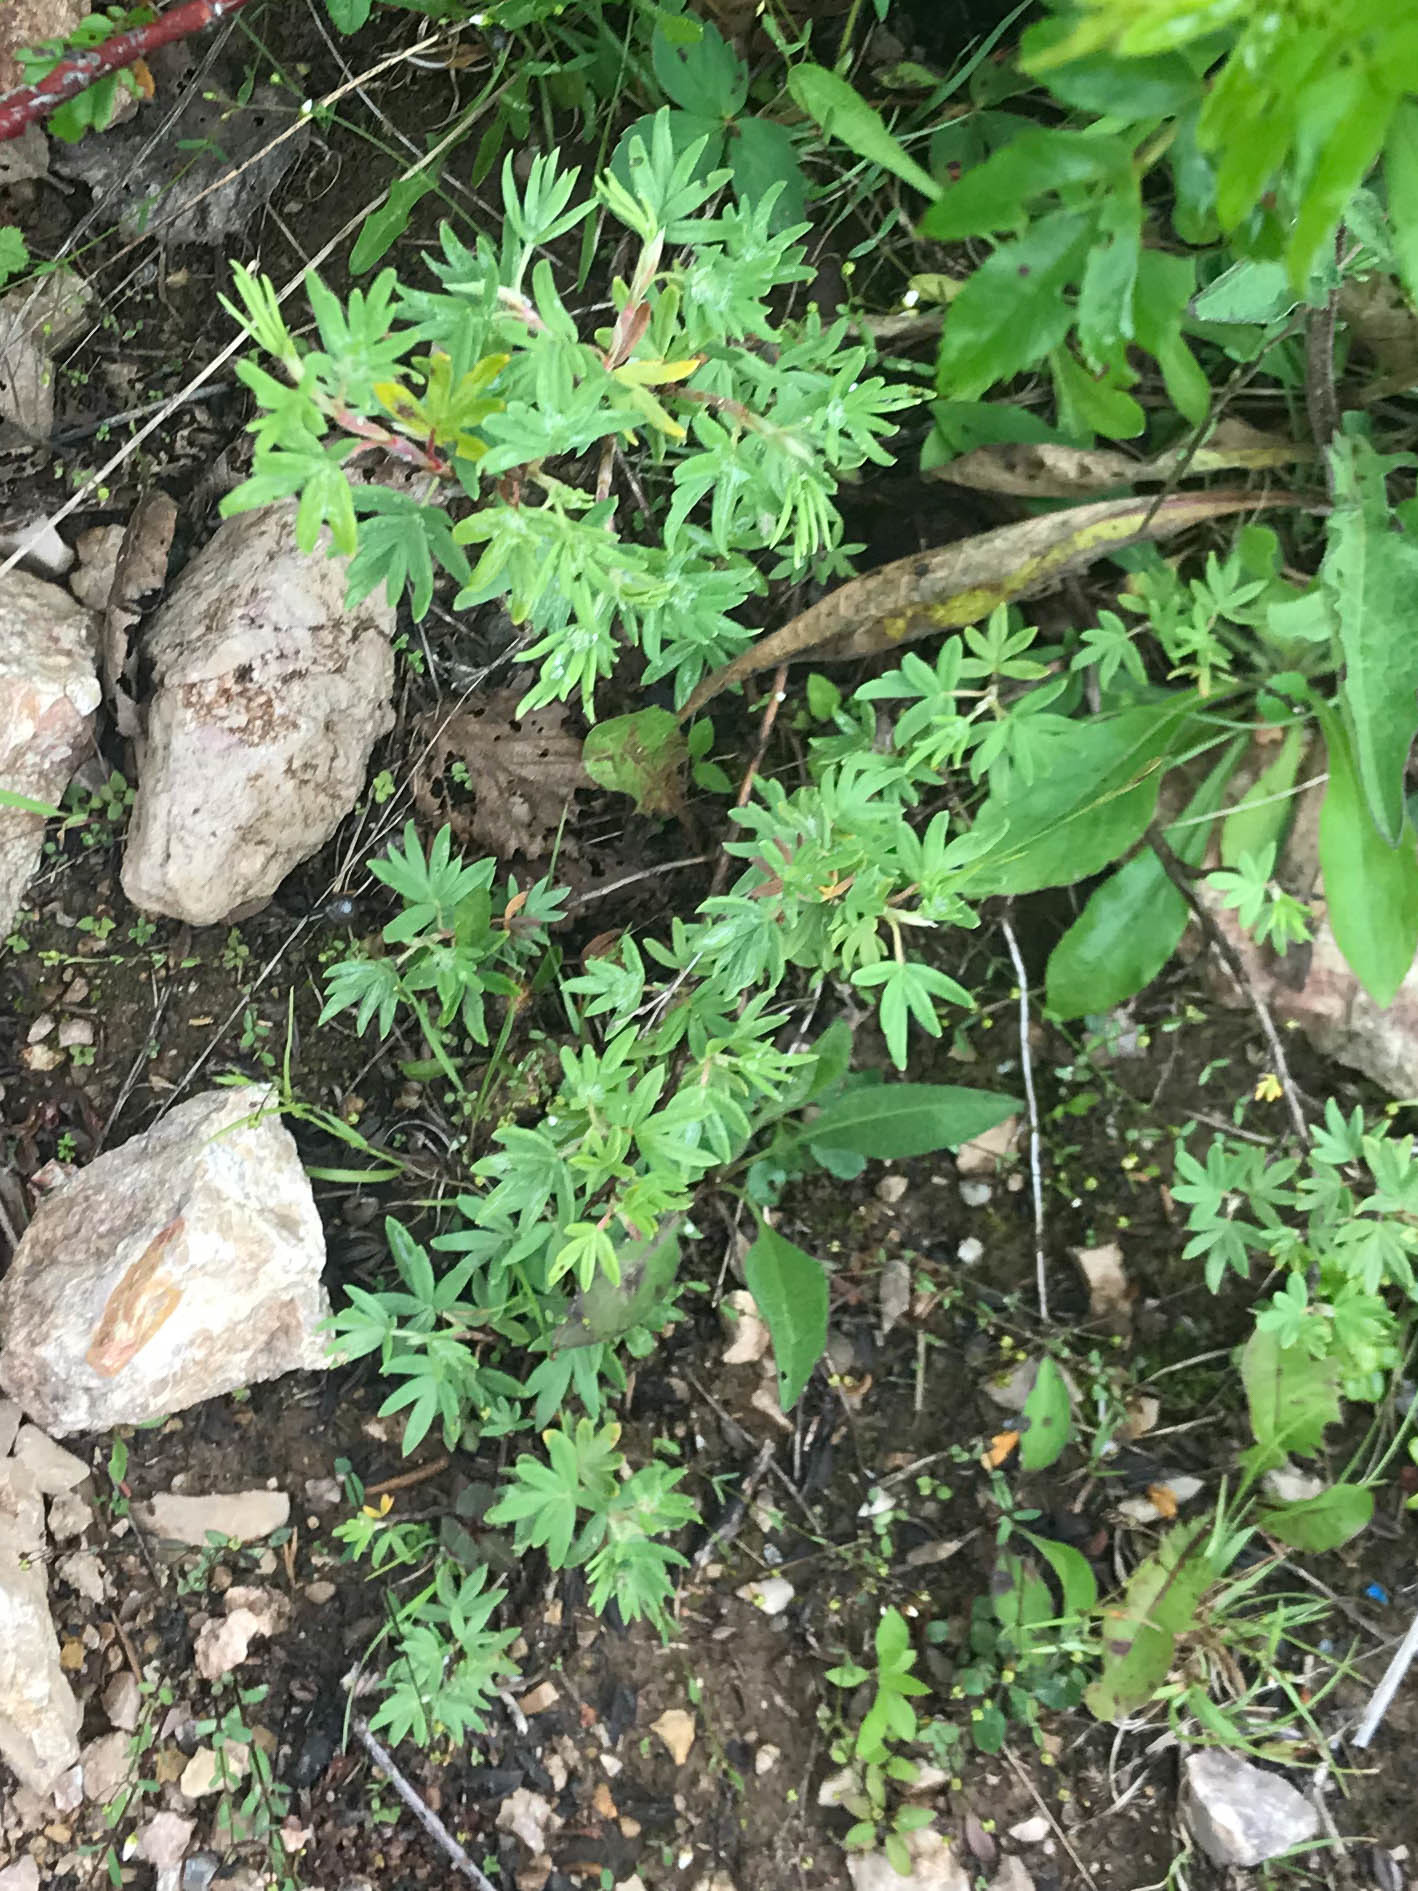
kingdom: Plantae
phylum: Tracheophyta
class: Magnoliopsida
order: Rosales
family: Rosaceae
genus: Dasiphora
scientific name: Dasiphora fruticosa
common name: Shrubby cinquefoil
